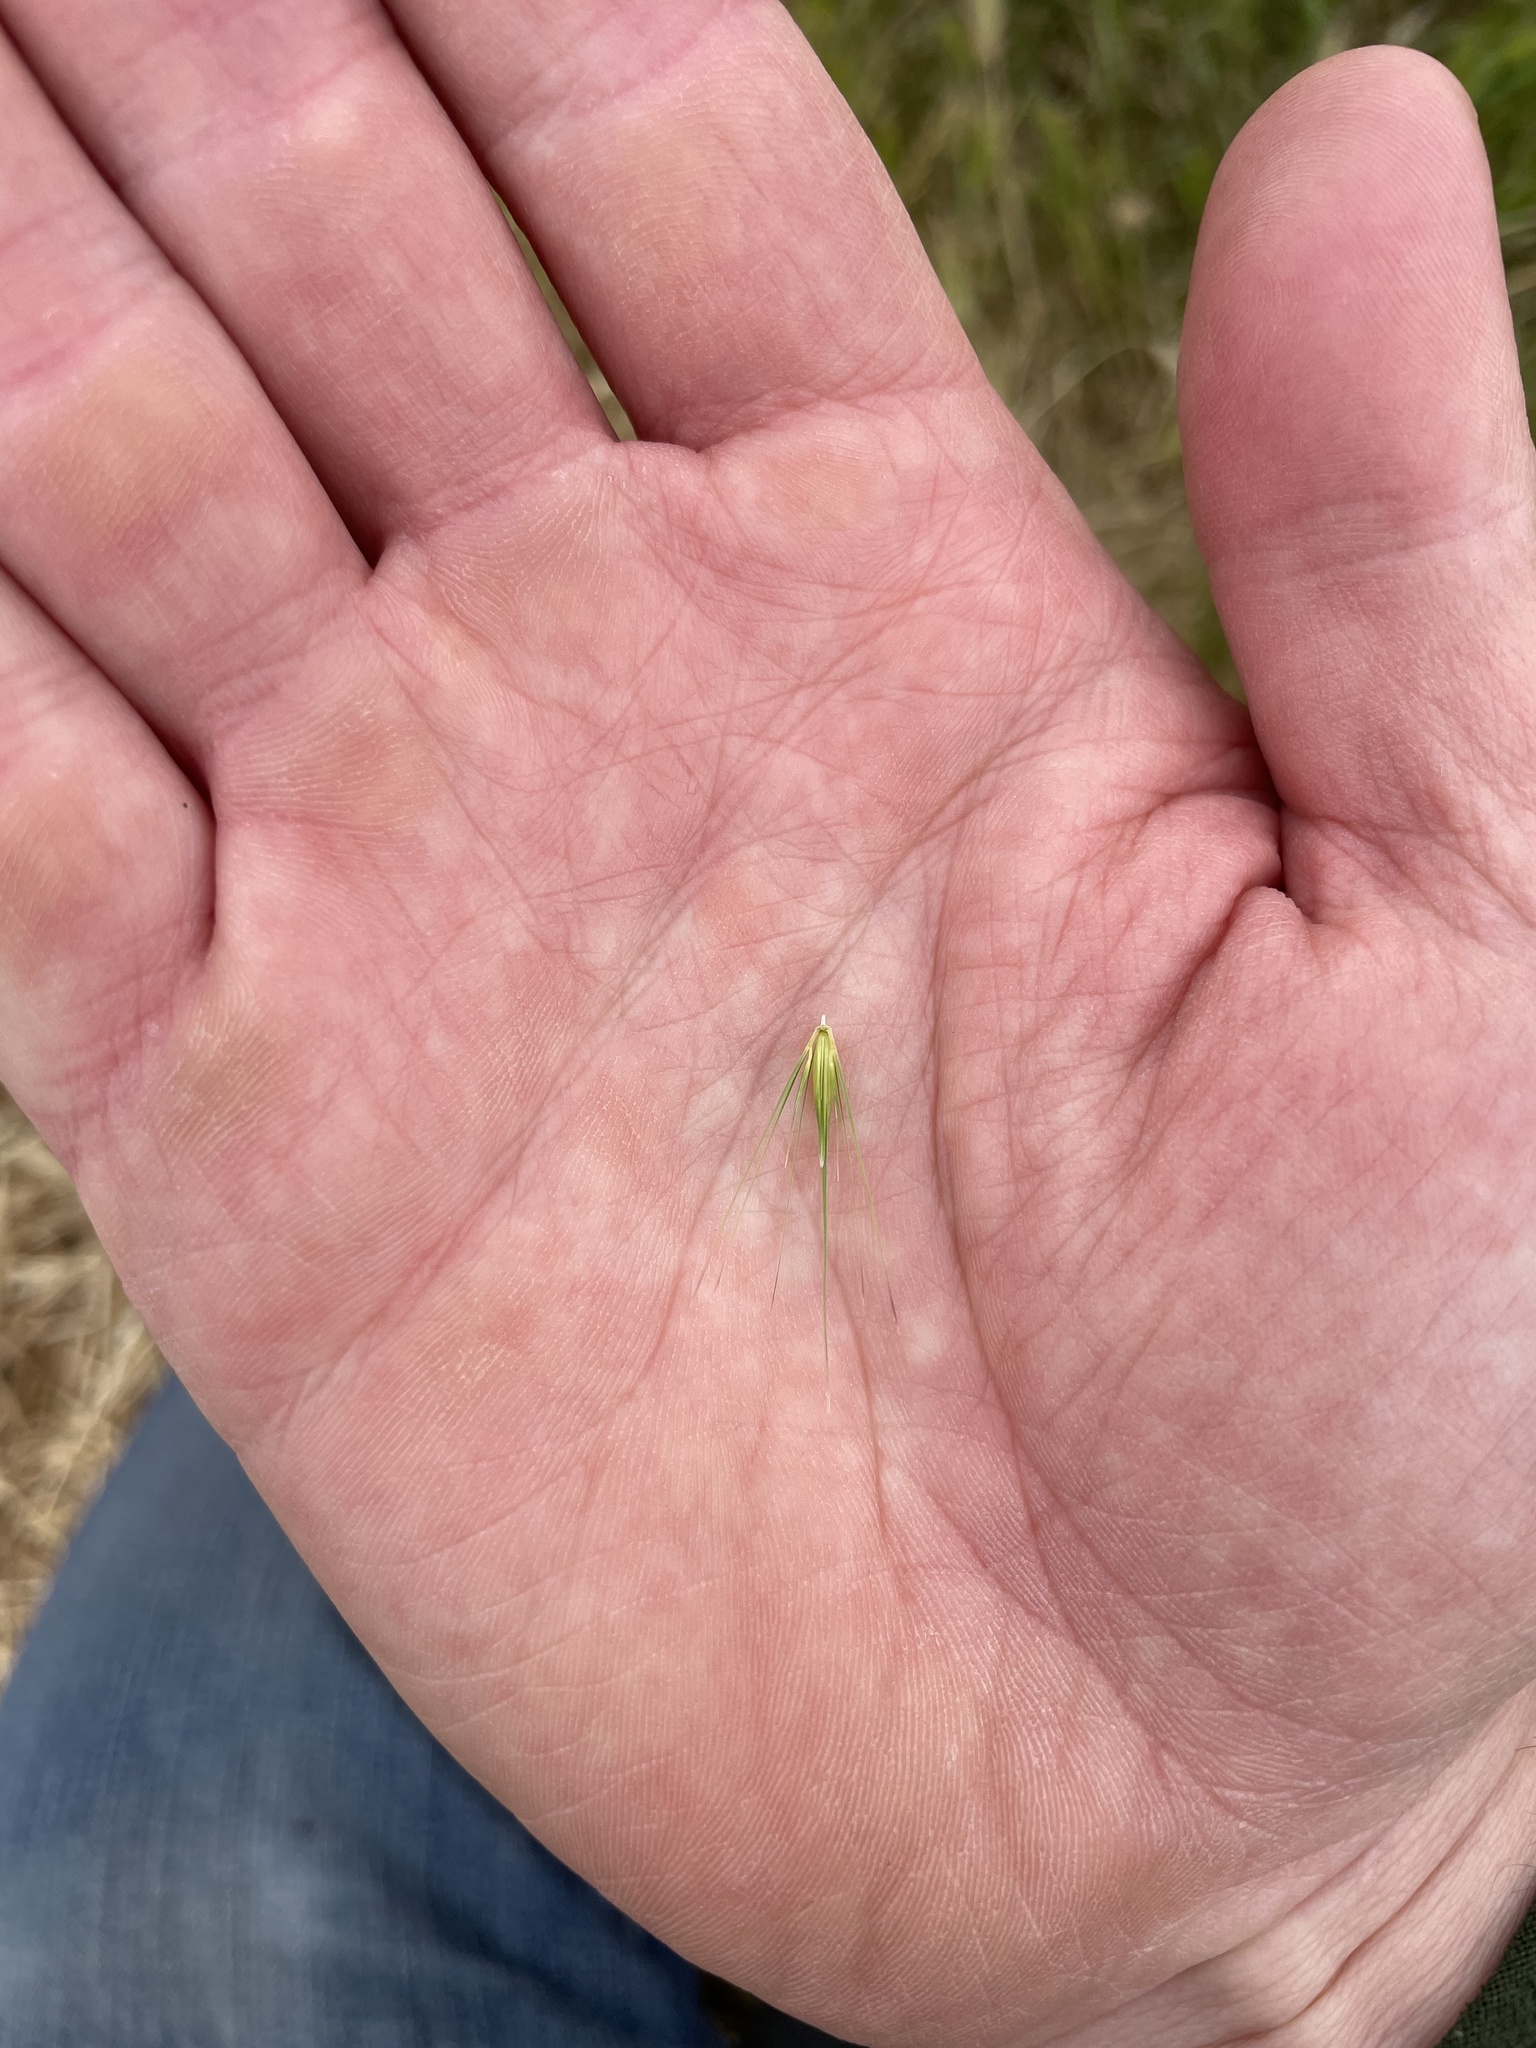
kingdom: Plantae
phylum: Tracheophyta
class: Liliopsida
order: Poales
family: Poaceae
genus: Hordeum
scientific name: Hordeum marinum
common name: Sea barley
